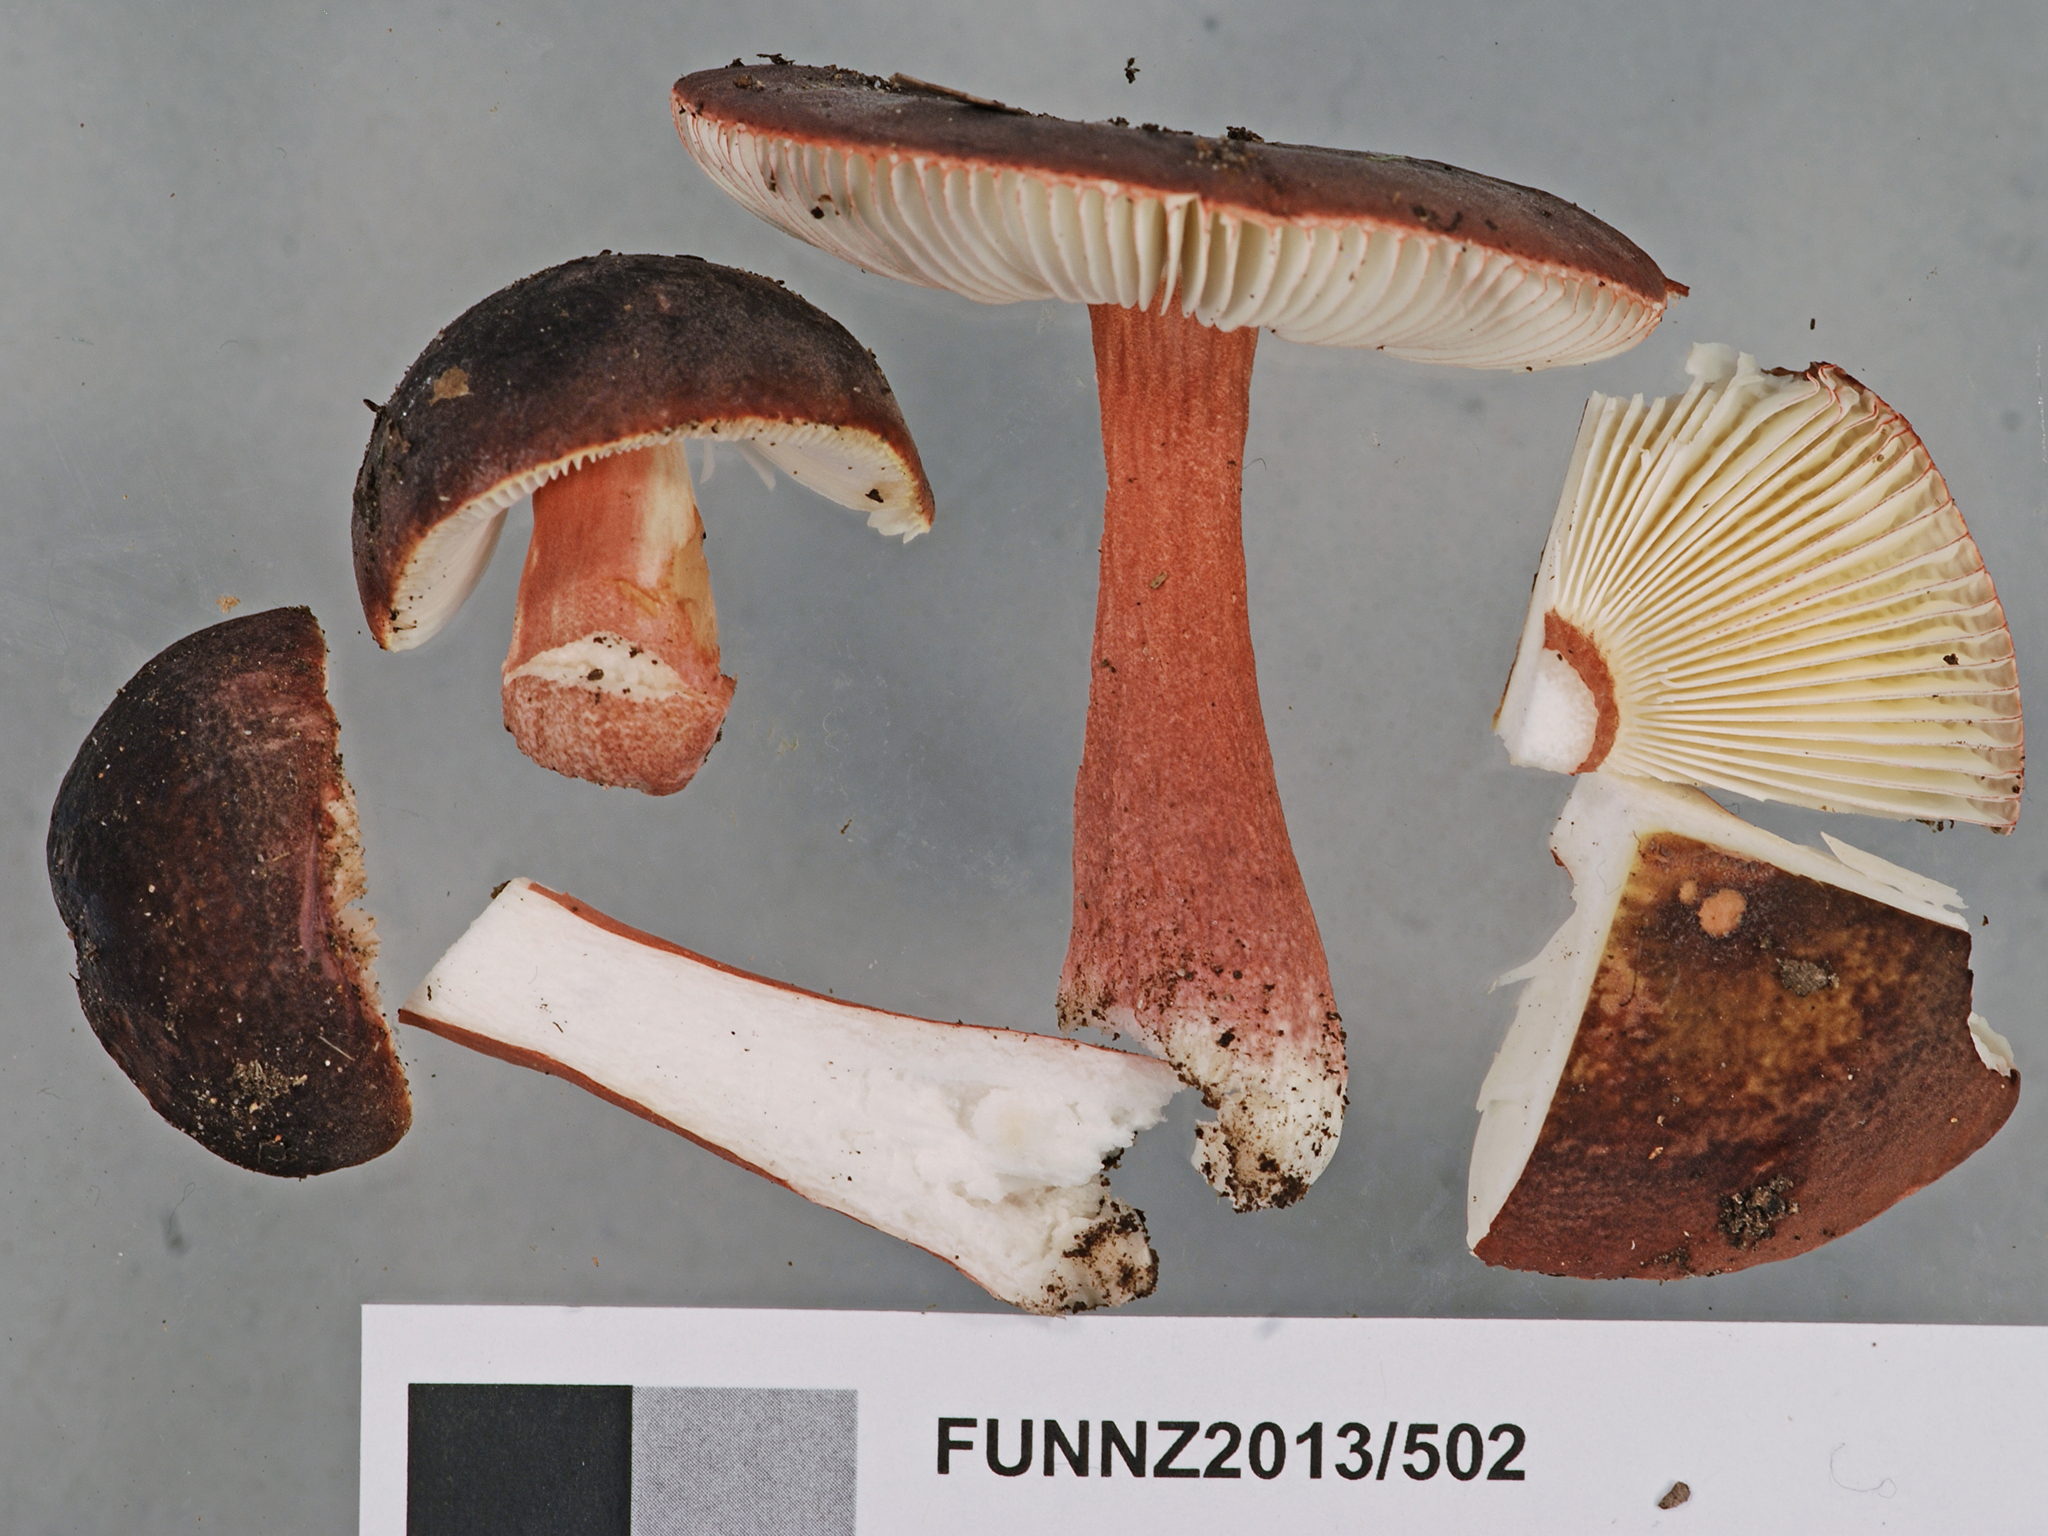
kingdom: Fungi
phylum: Basidiomycota
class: Agaricomycetes
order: Russulales
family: Russulaceae
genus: Russula
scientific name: Russula pilocystidiata
